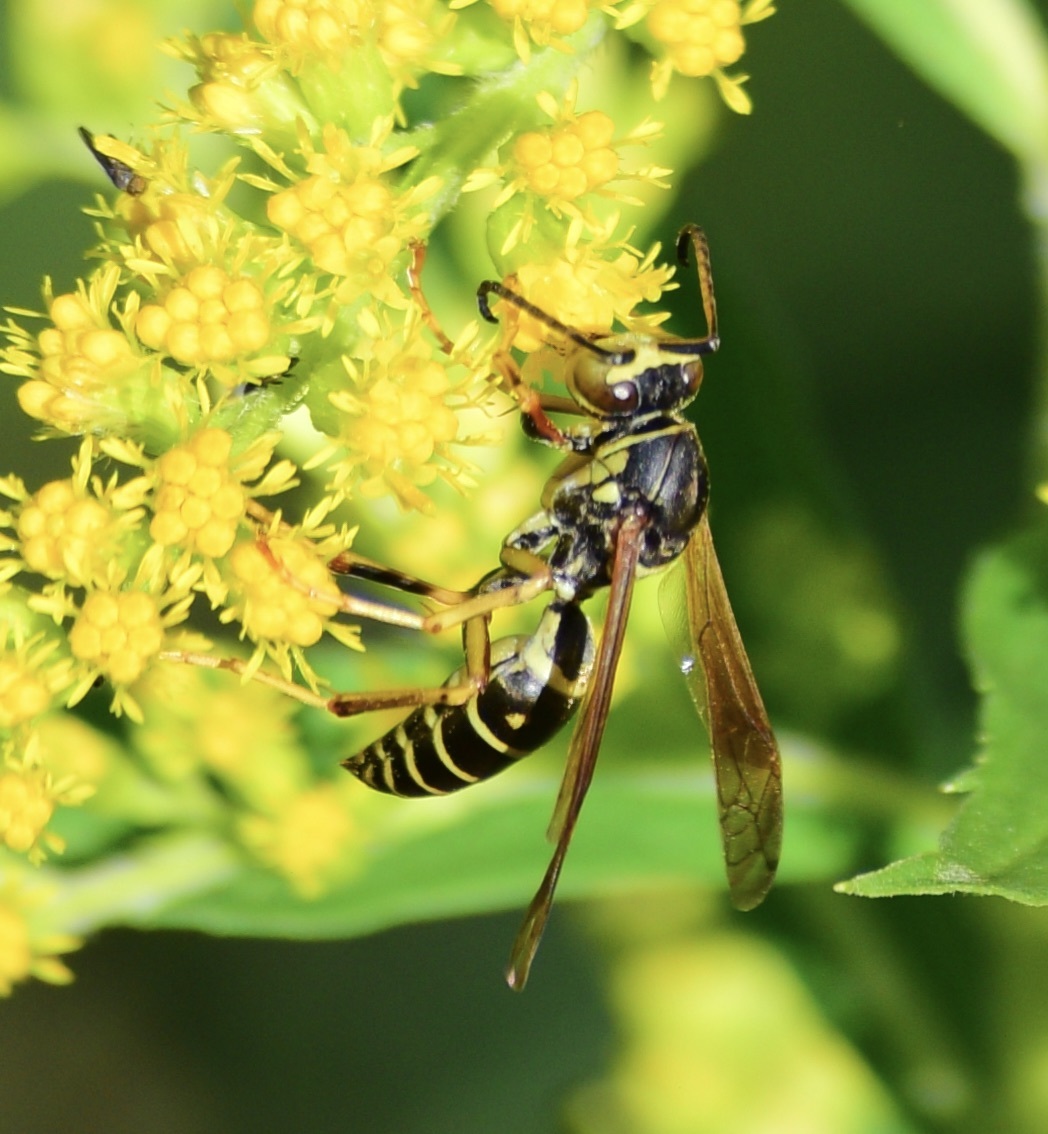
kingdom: Animalia
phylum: Arthropoda
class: Insecta
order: Hymenoptera
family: Eumenidae
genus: Polistes
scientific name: Polistes fuscatus
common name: Dark paper wasp
